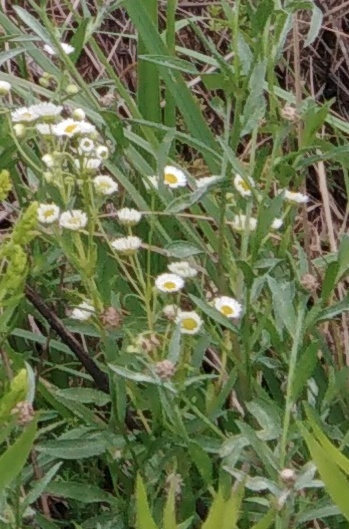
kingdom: Plantae
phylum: Tracheophyta
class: Magnoliopsida
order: Asterales
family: Asteraceae
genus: Erigeron
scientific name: Erigeron annuus
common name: Tall fleabane
